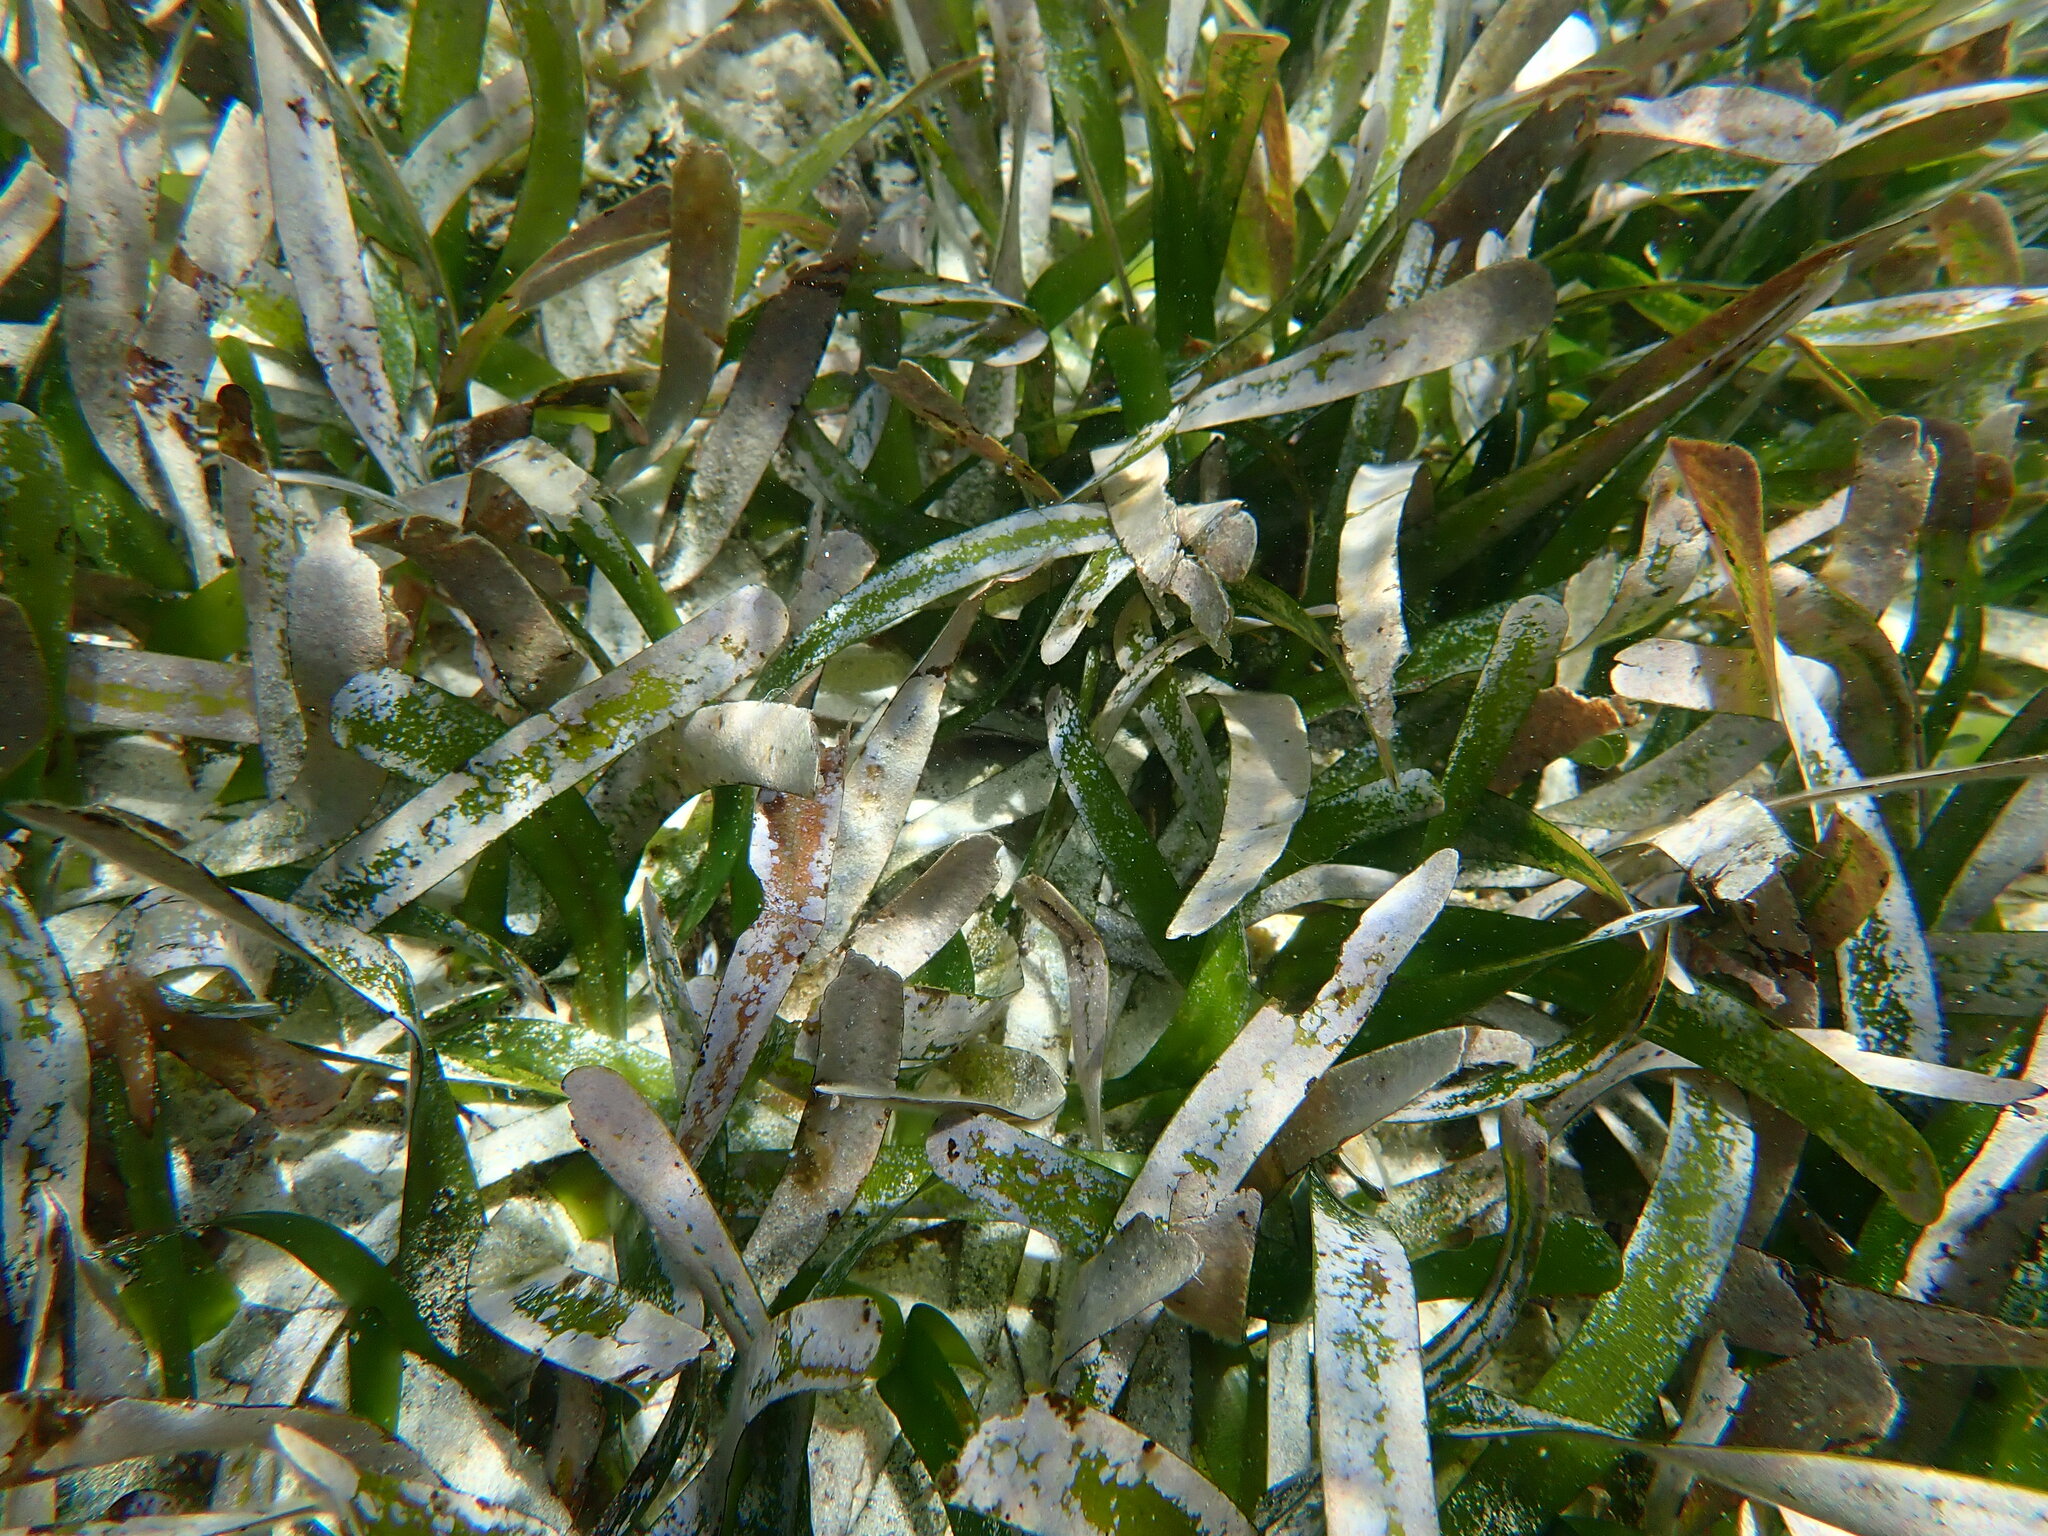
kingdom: Plantae
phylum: Tracheophyta
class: Liliopsida
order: Alismatales
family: Hydrocharitaceae
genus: Thalassia
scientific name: Thalassia testudinum
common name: Species code: tt
